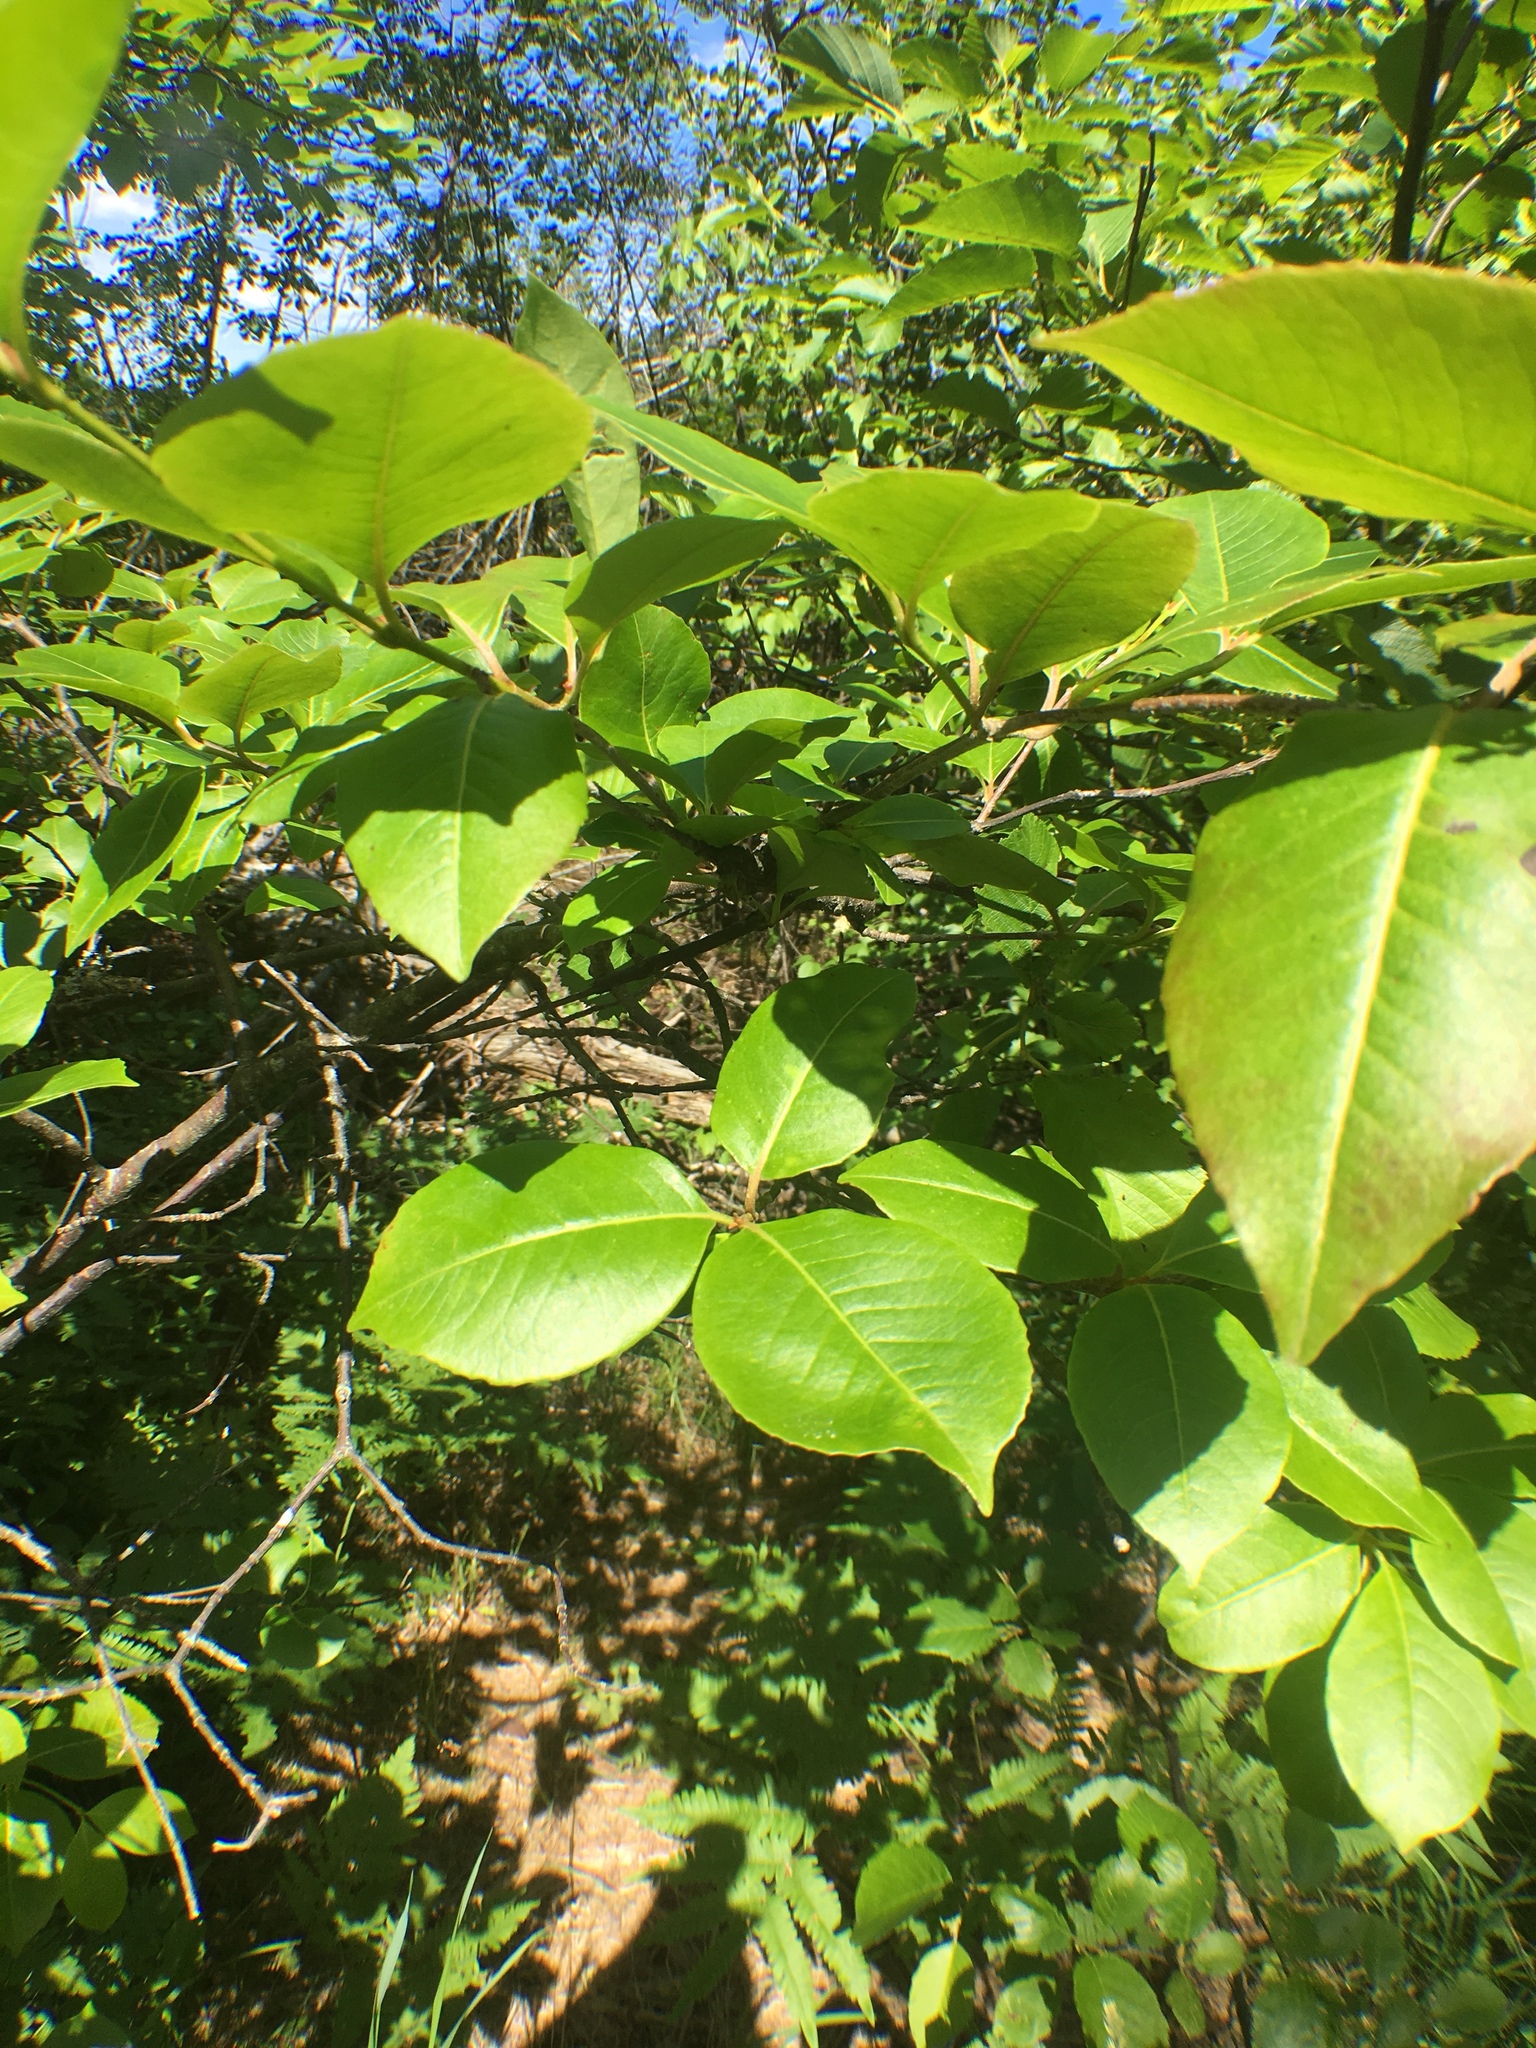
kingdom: Plantae
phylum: Tracheophyta
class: Magnoliopsida
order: Dipsacales
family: Viburnaceae
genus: Viburnum
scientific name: Viburnum cassinoides
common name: Swamp haw
